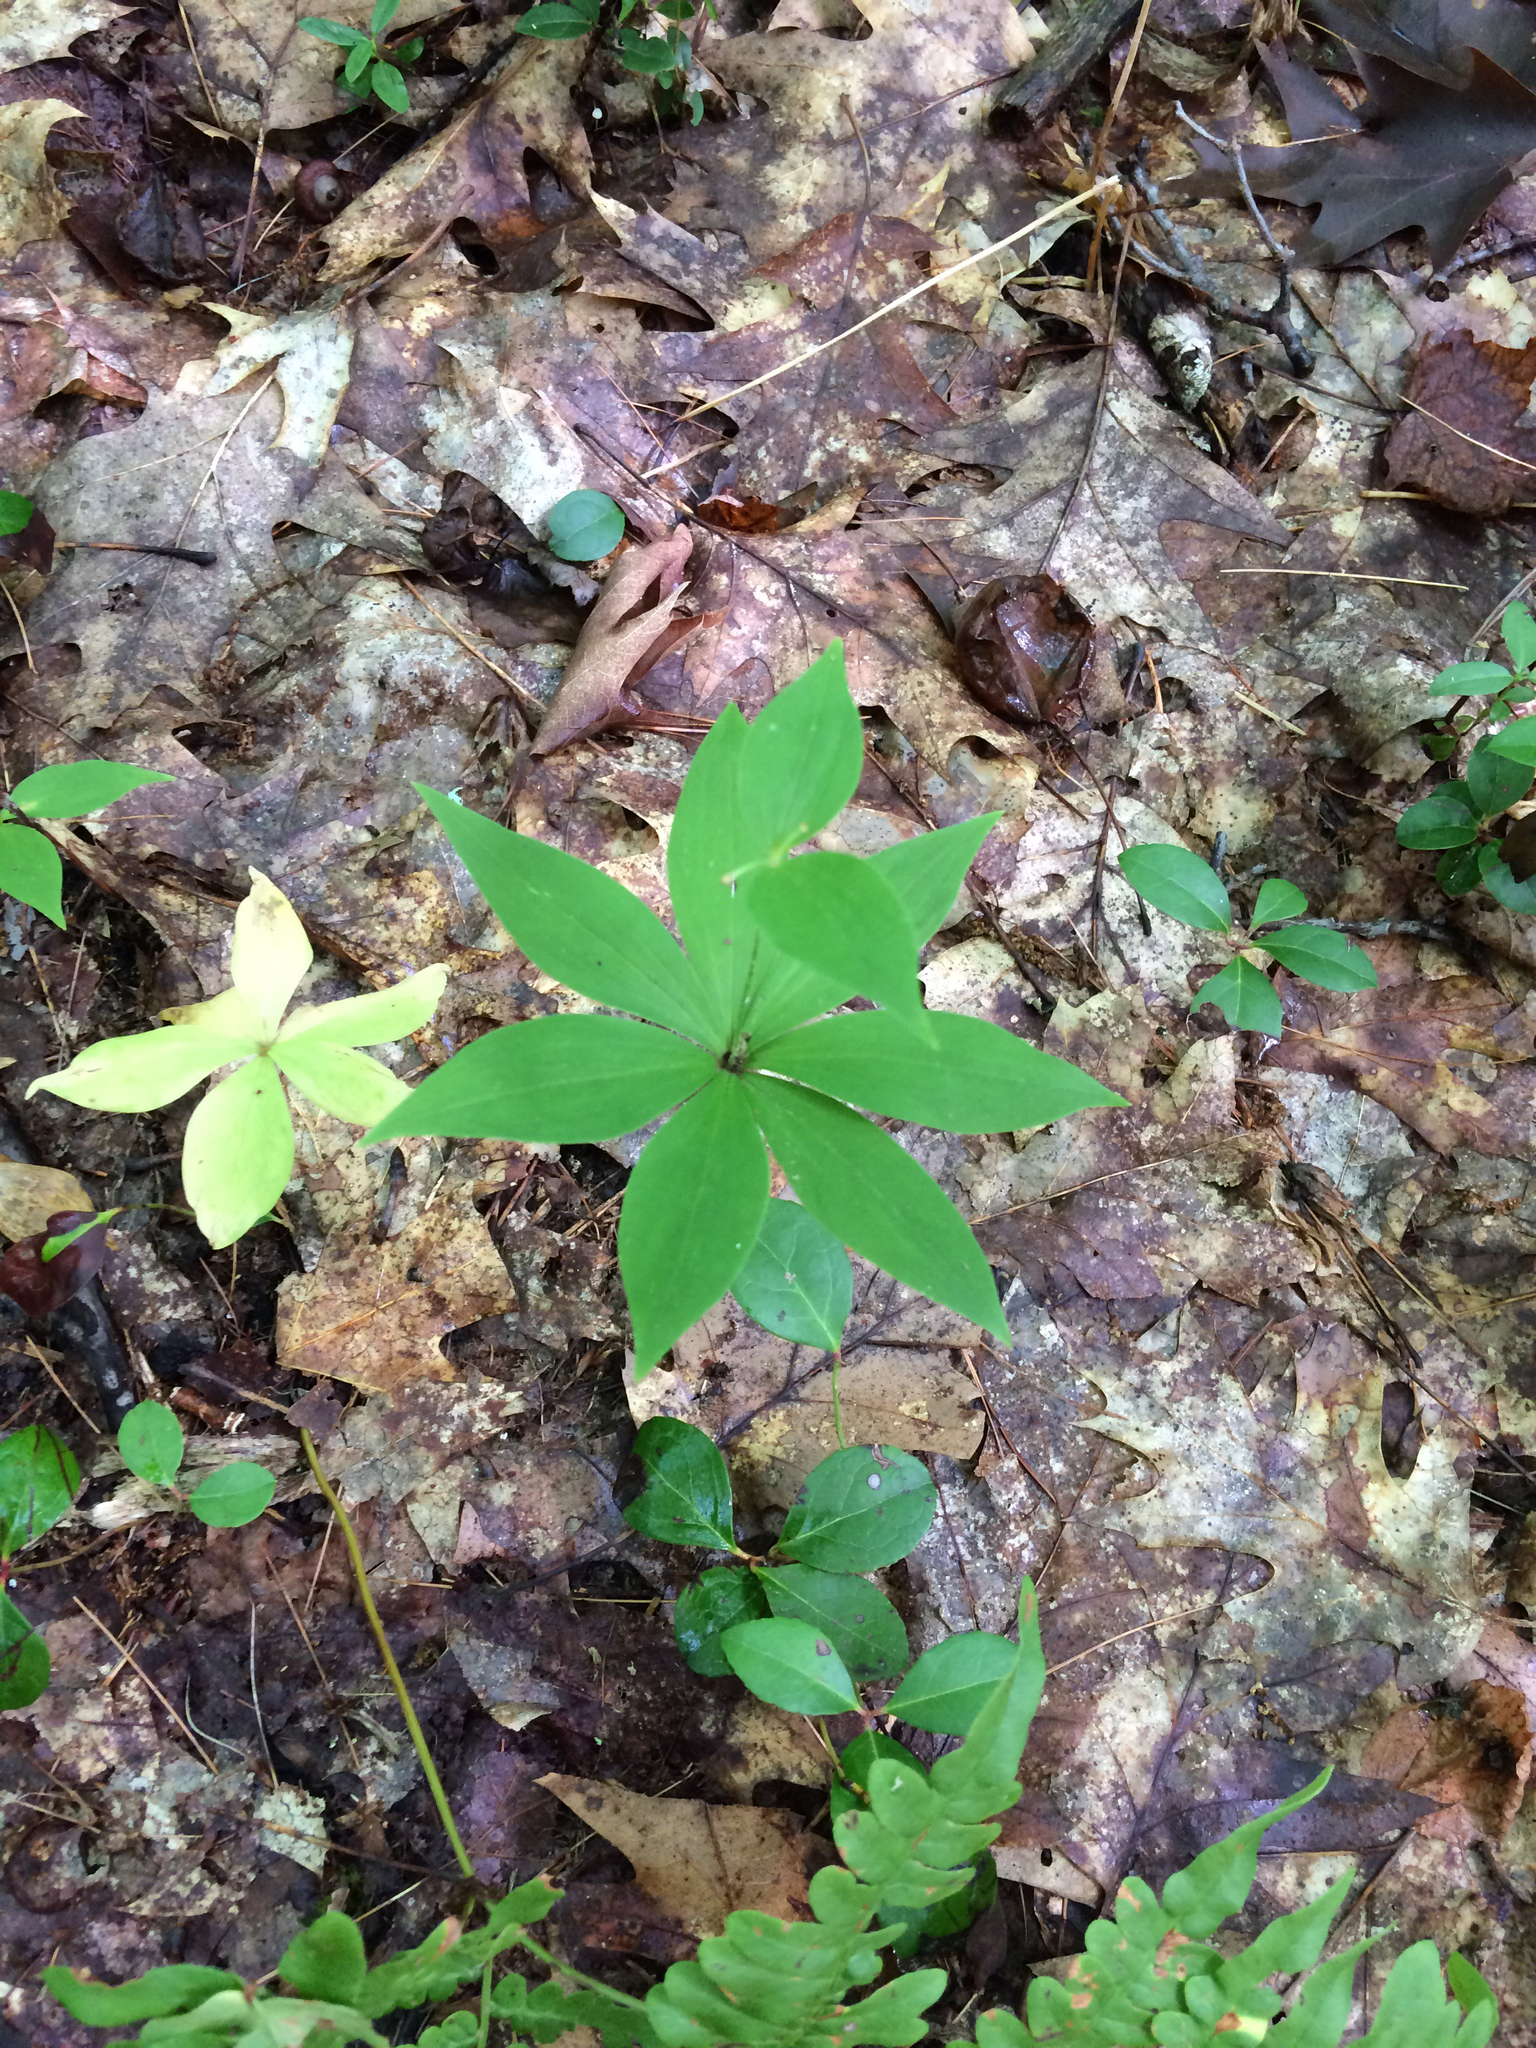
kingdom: Plantae
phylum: Tracheophyta
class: Liliopsida
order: Liliales
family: Liliaceae
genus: Medeola
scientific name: Medeola virginiana
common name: Indian cucumber-root
